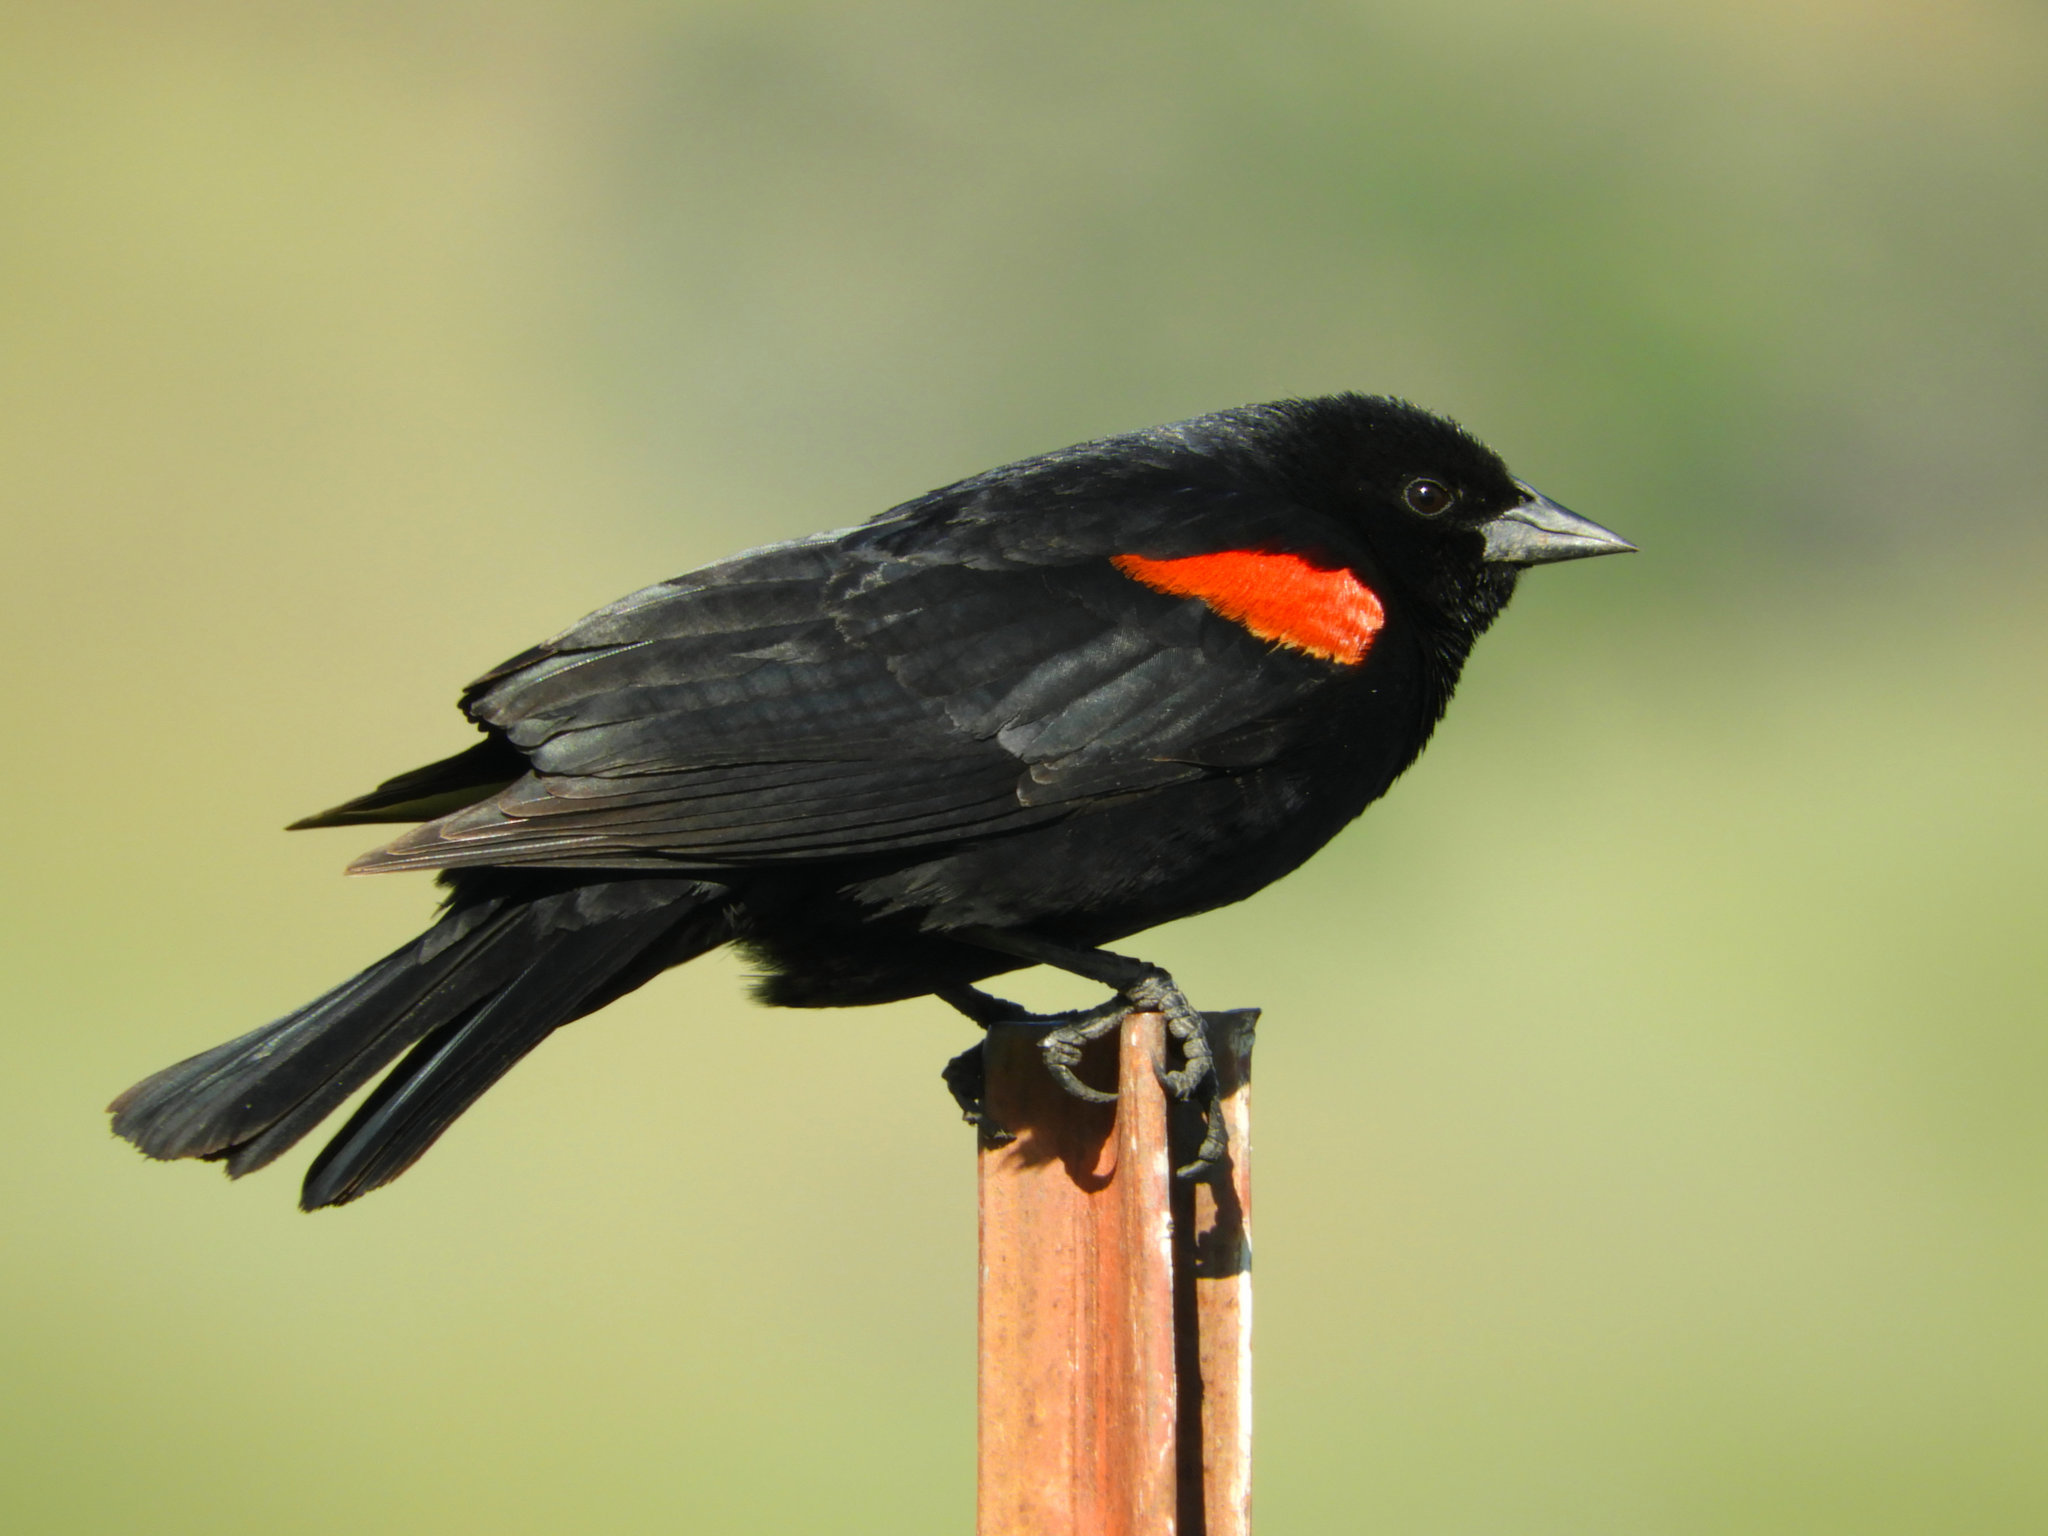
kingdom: Animalia
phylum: Chordata
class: Aves
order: Passeriformes
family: Icteridae
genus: Agelaius
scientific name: Agelaius phoeniceus
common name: Red-winged blackbird
